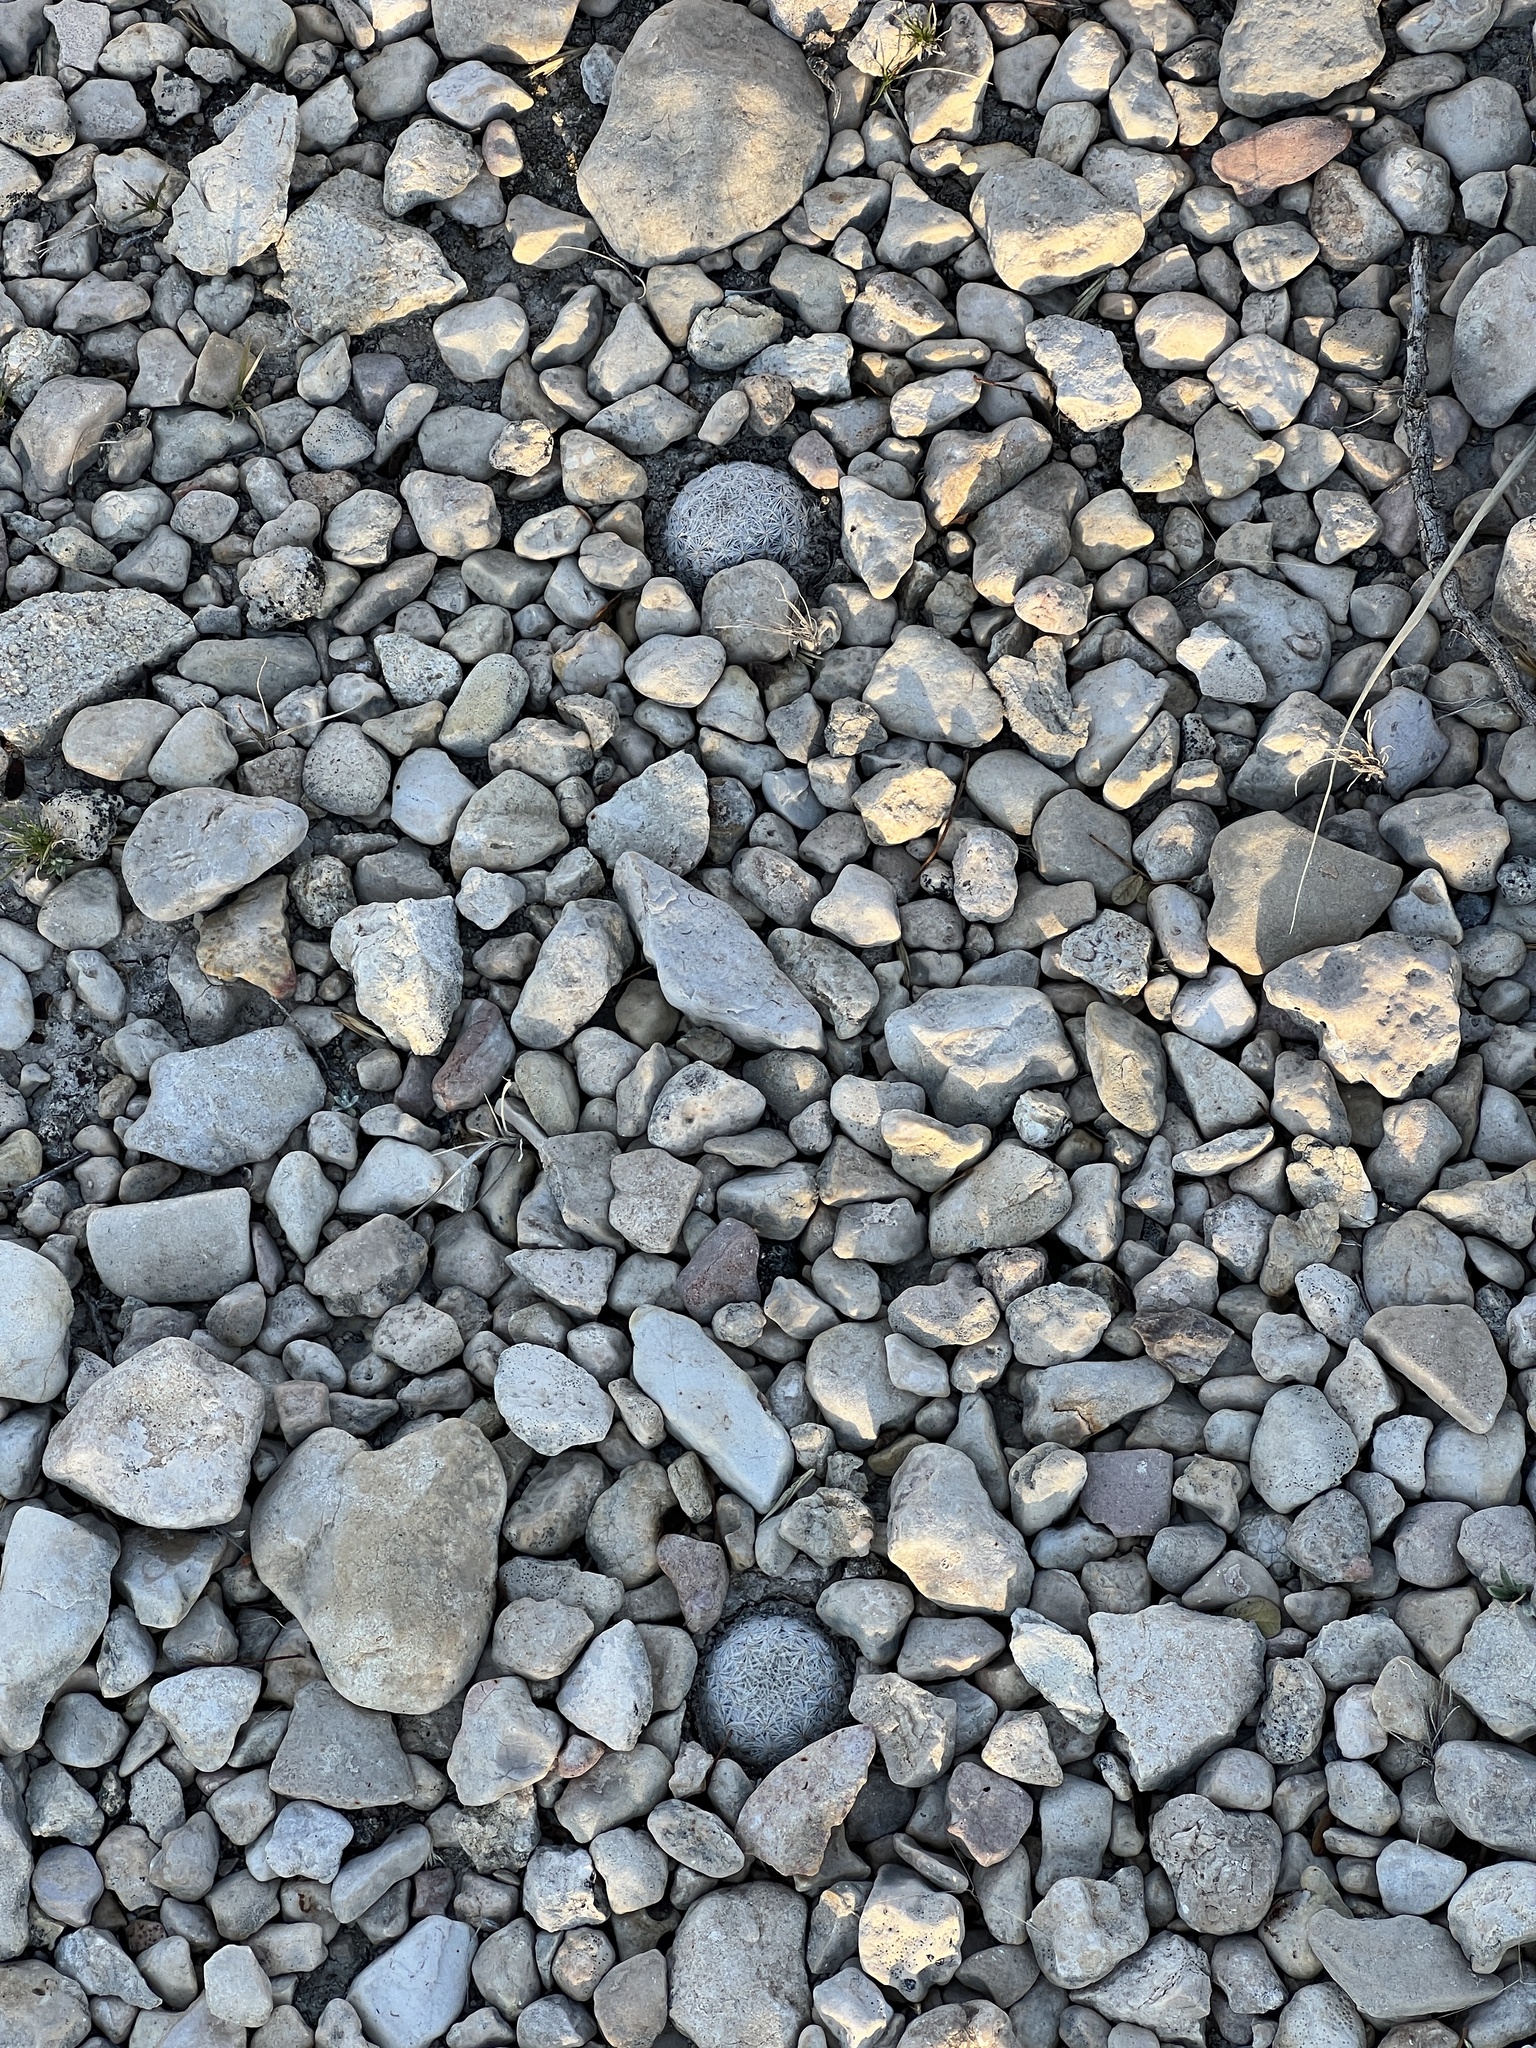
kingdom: Plantae
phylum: Tracheophyta
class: Magnoliopsida
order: Caryophyllales
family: Cactaceae
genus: Epithelantha
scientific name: Epithelantha micromeris
